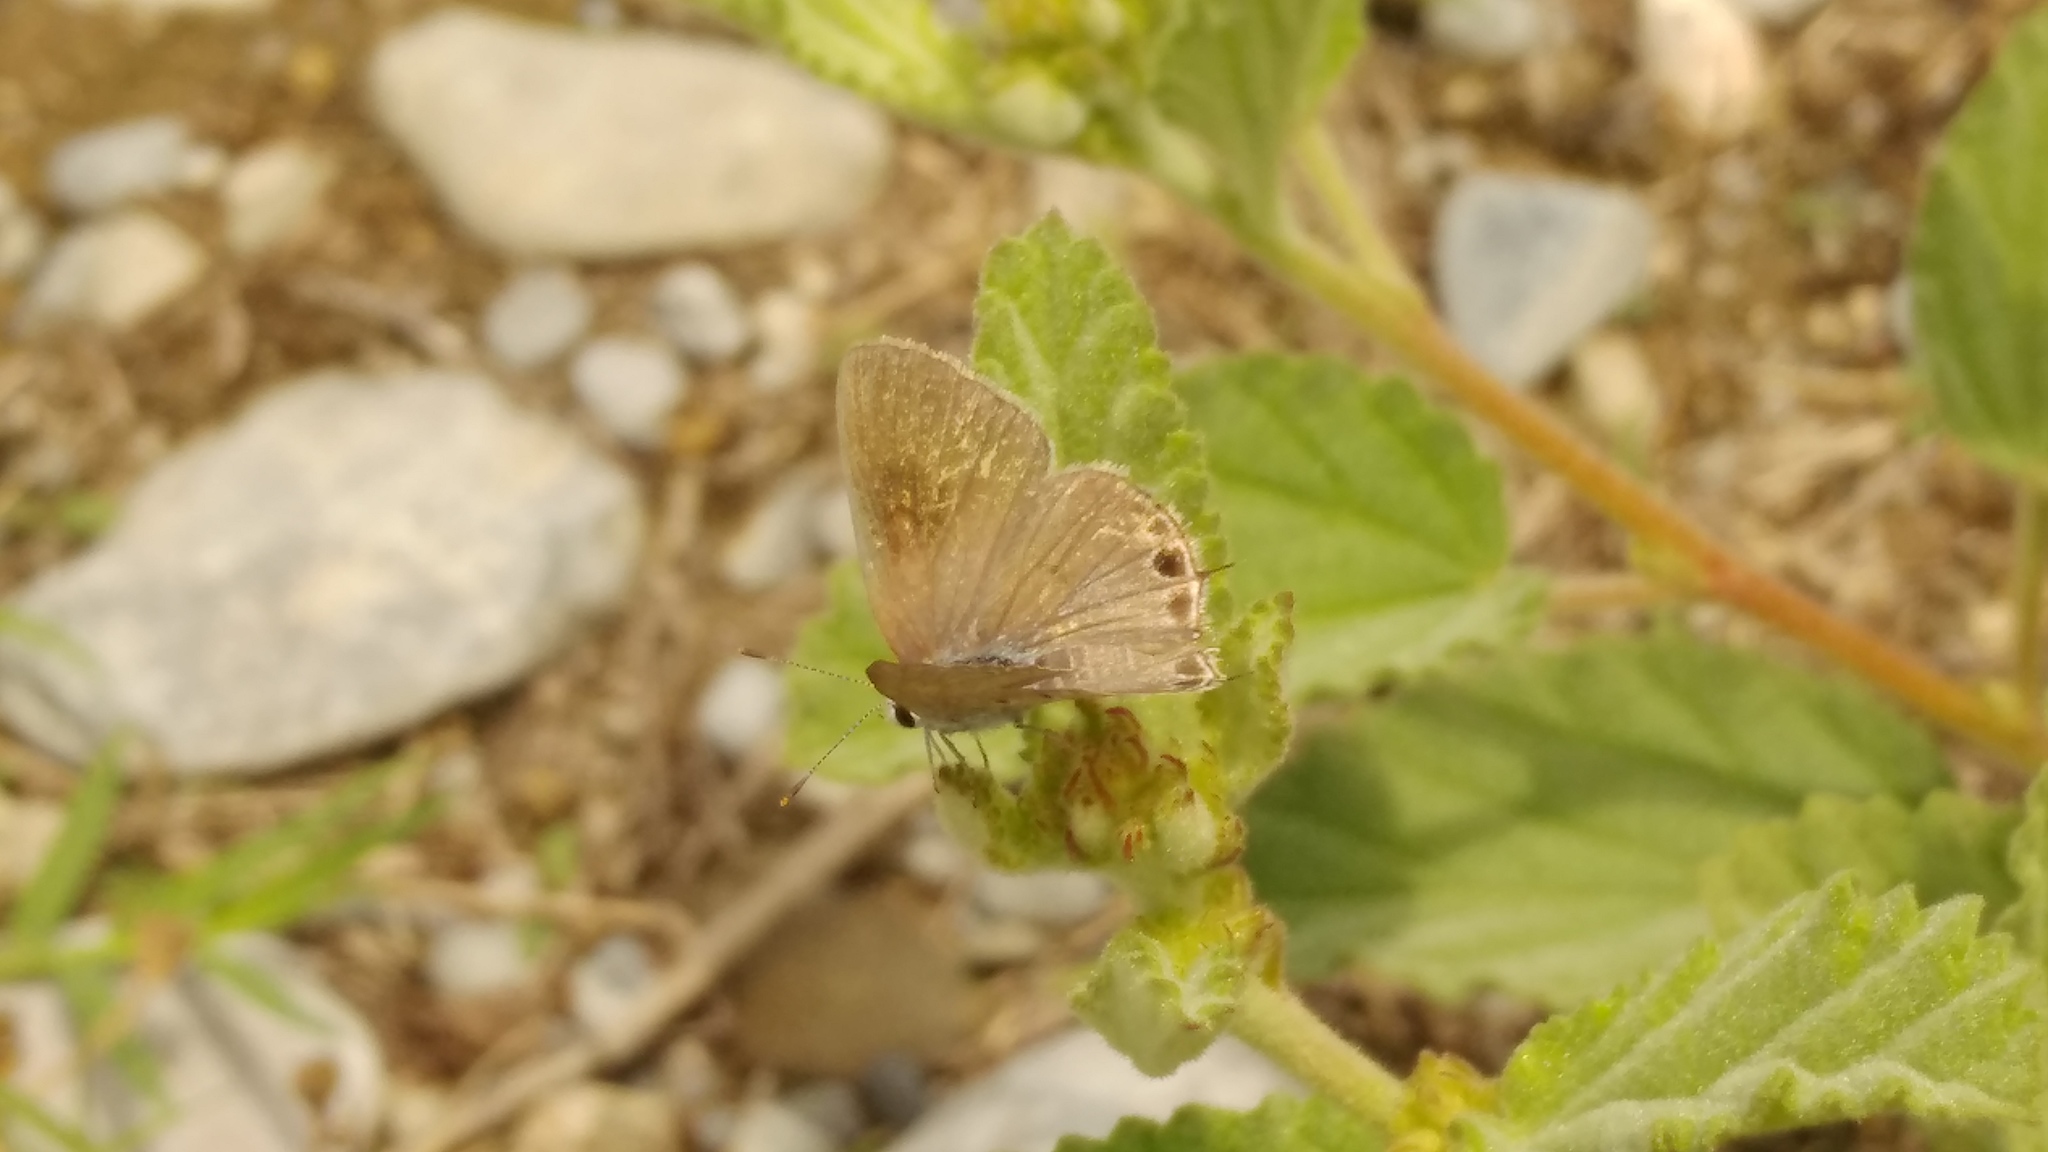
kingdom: Animalia
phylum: Arthropoda
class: Insecta
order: Lepidoptera
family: Lycaenidae
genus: Callicista
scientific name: Callicista columella
